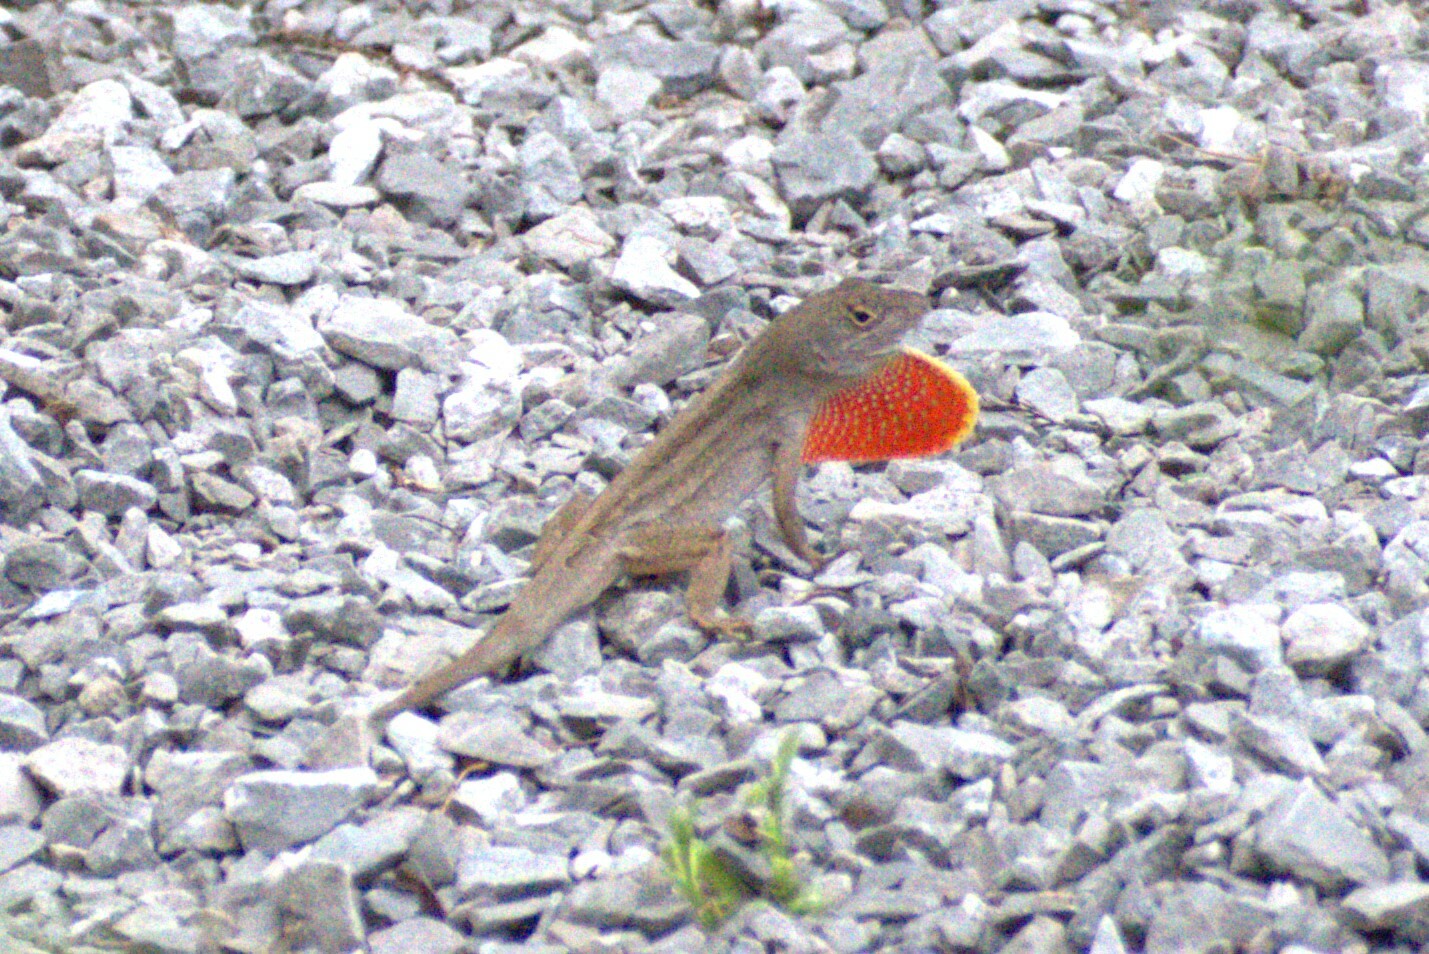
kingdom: Animalia
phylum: Chordata
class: Squamata
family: Dactyloidae
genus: Anolis
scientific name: Anolis sagrei
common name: Brown anole
